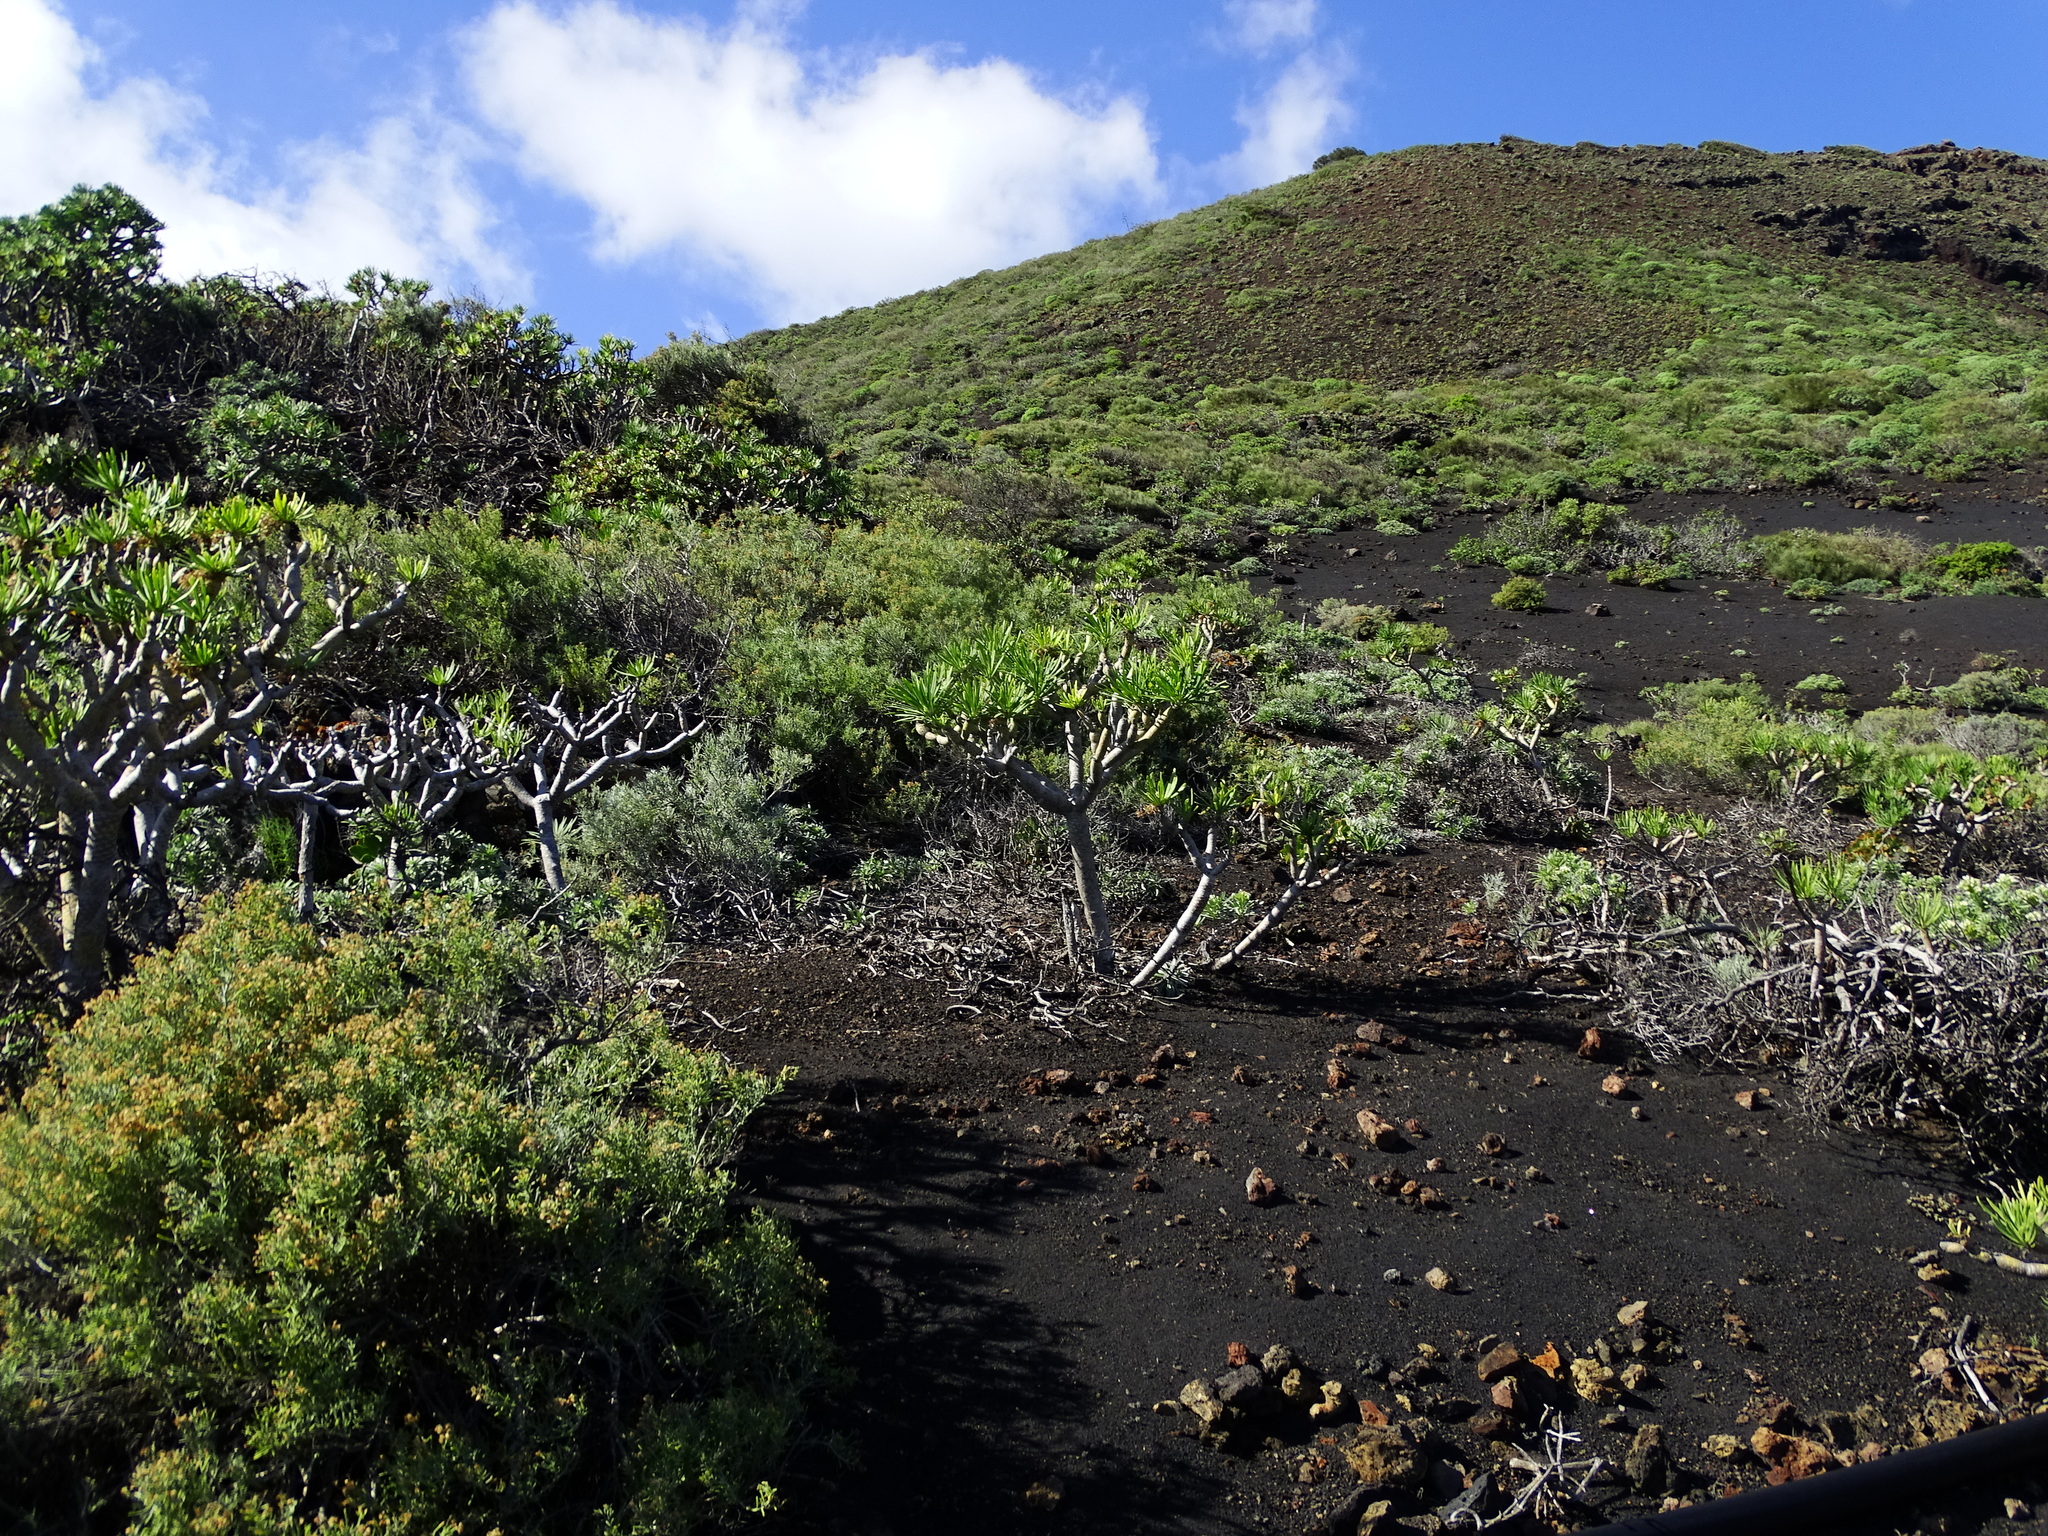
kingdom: Plantae
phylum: Tracheophyta
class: Magnoliopsida
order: Asterales
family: Asteraceae
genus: Kleinia
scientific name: Kleinia neriifolia
